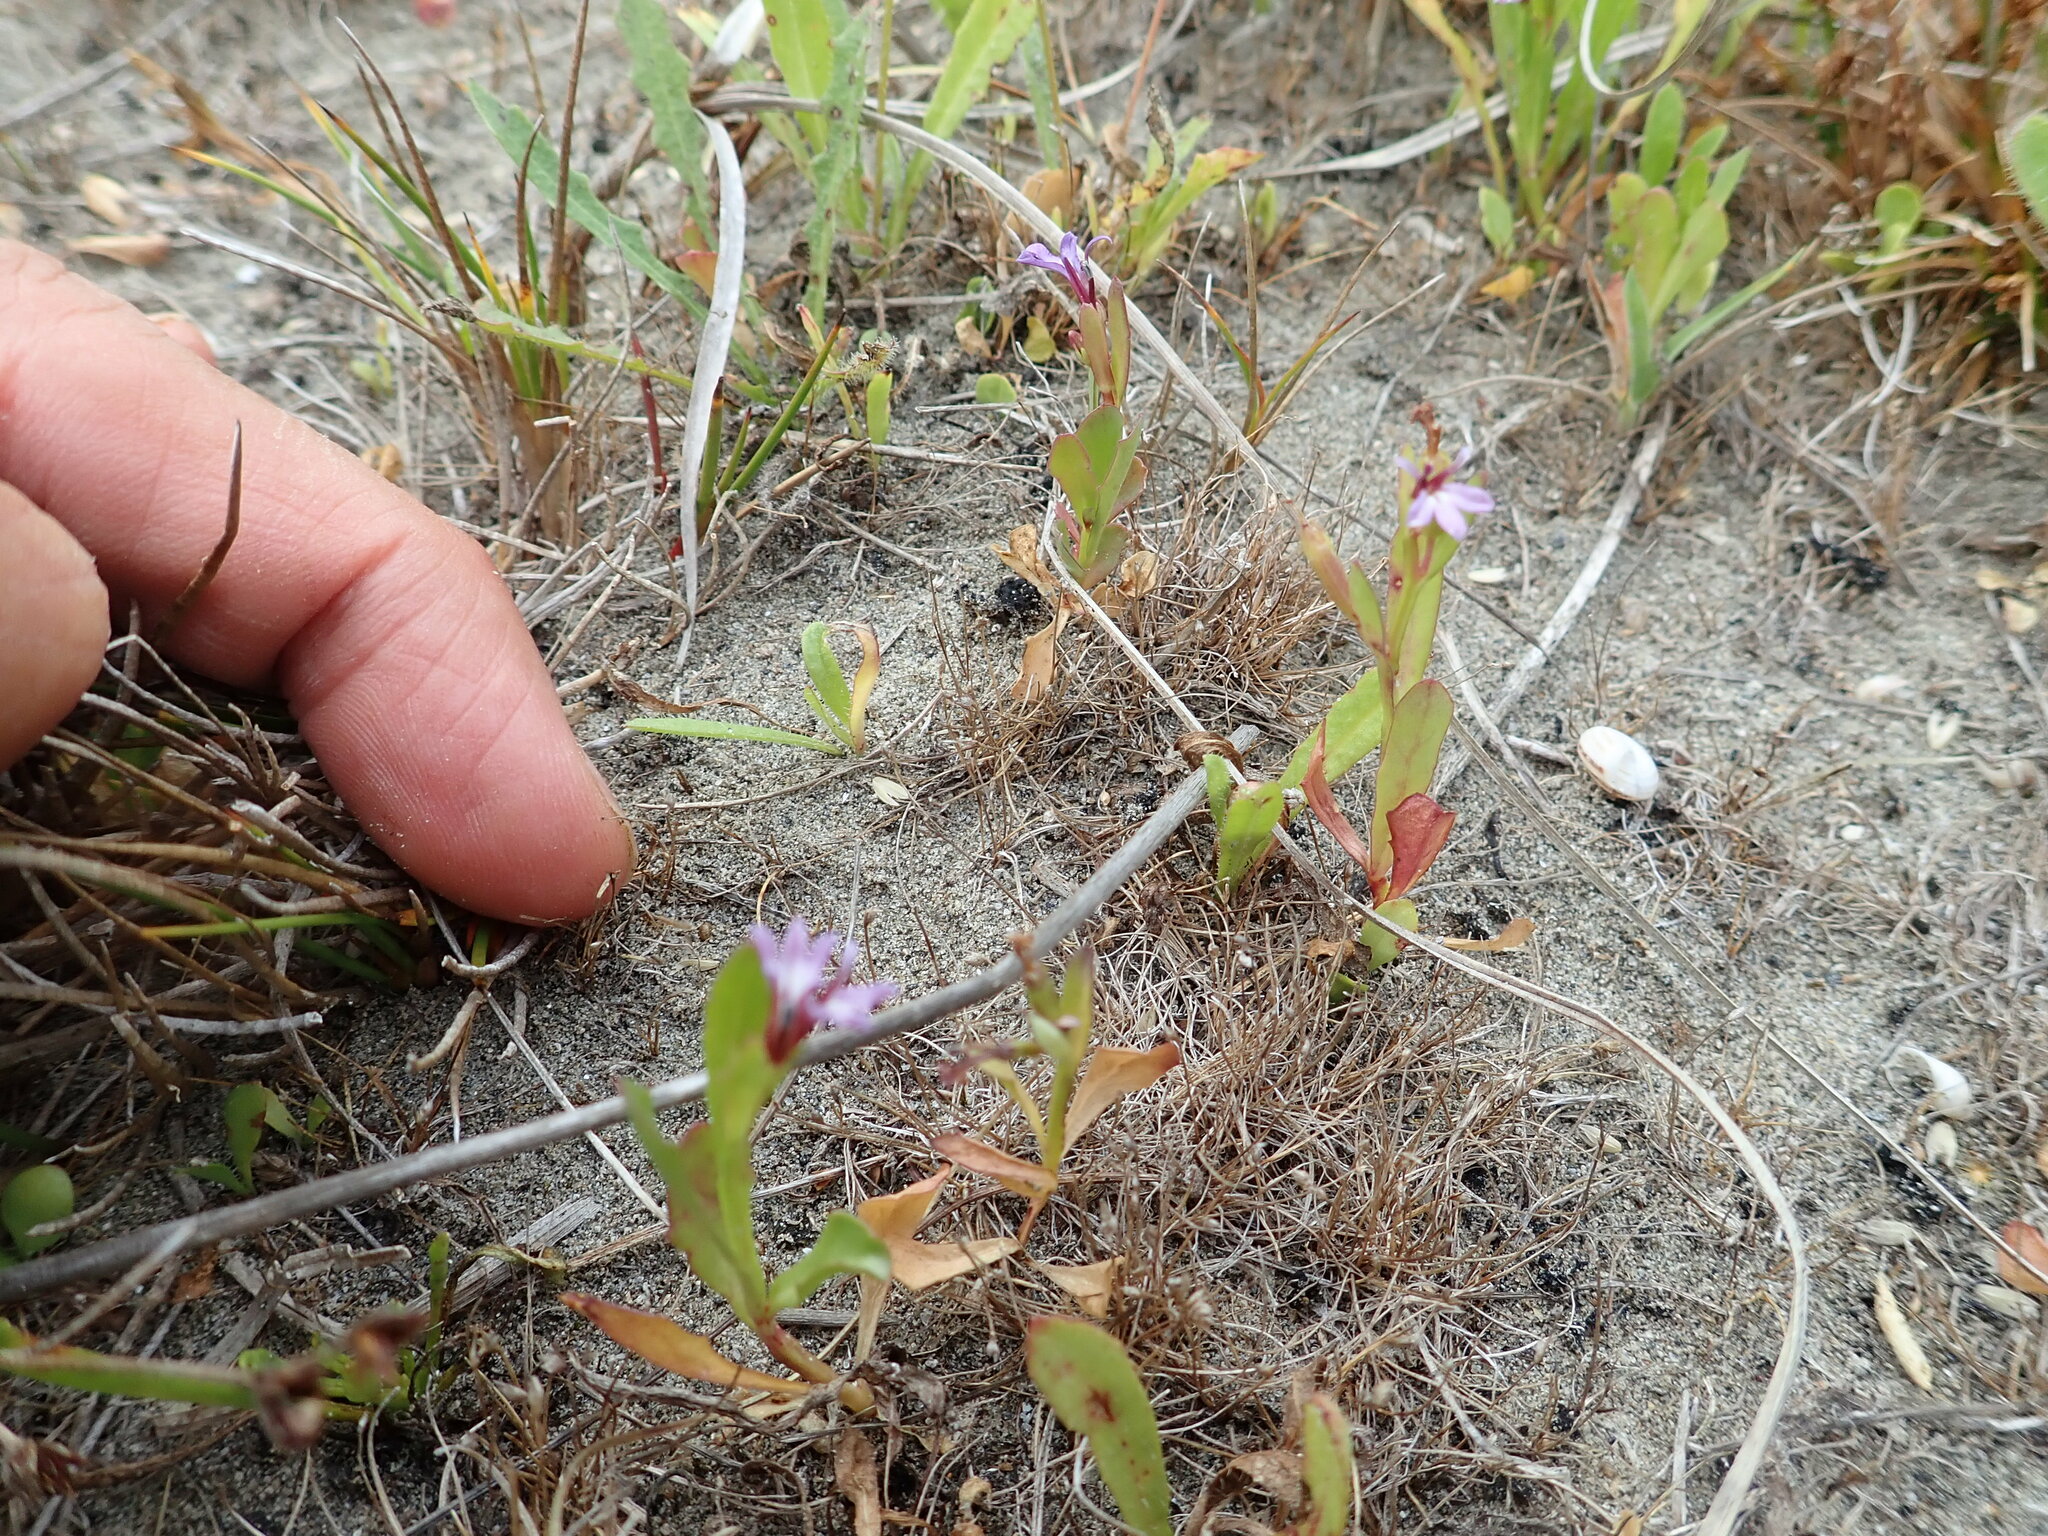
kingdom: Plantae
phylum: Tracheophyta
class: Magnoliopsida
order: Asterales
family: Campanulaceae
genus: Lobelia
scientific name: Lobelia anceps
